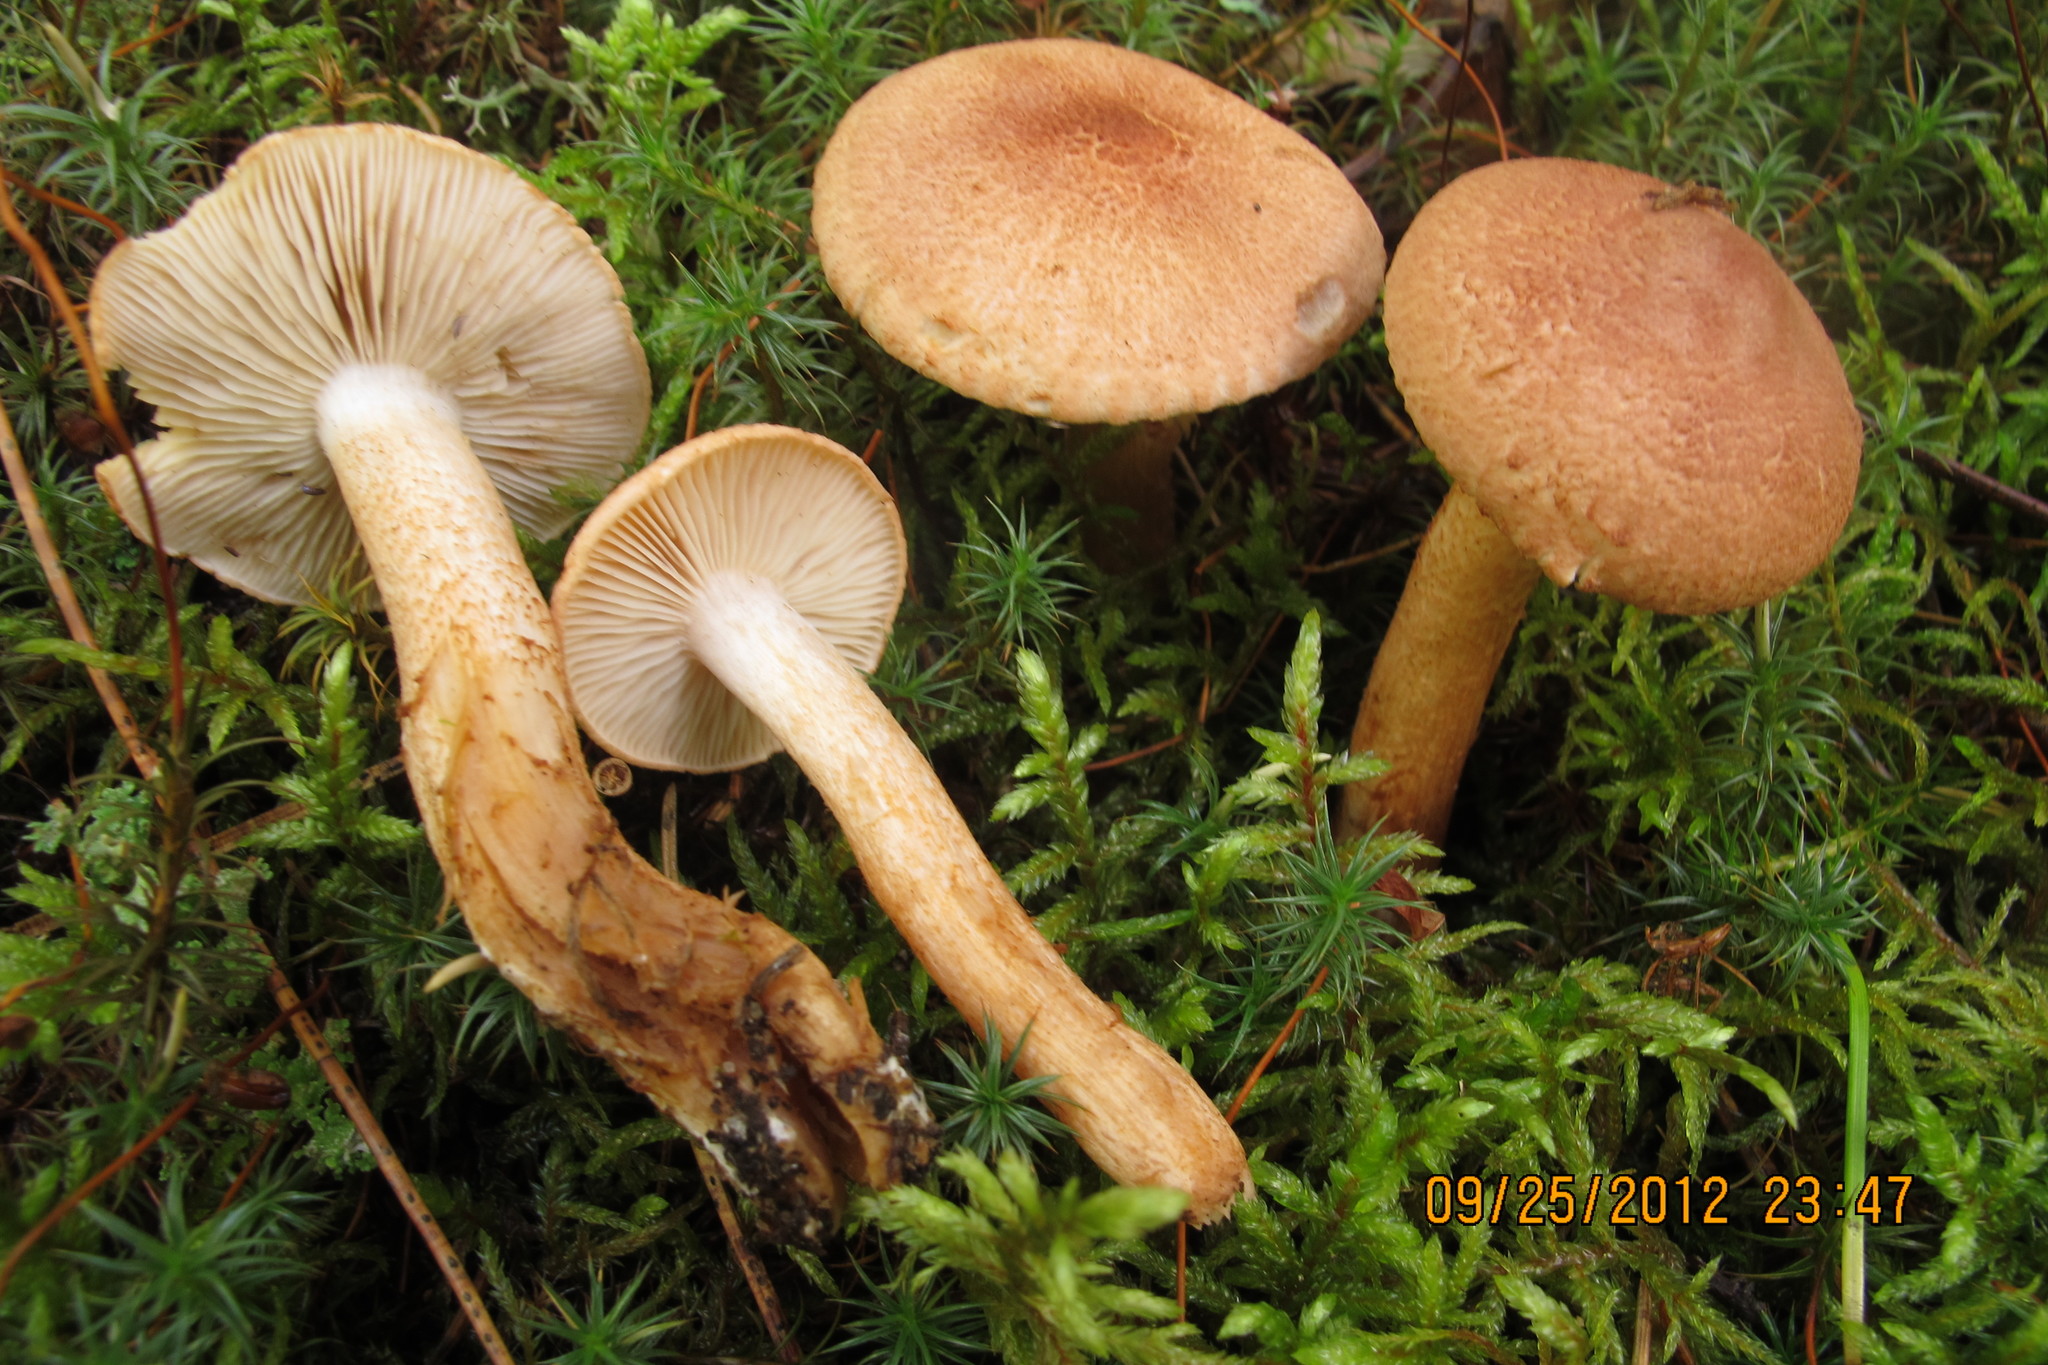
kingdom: Fungi
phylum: Basidiomycota
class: Agaricomycetes
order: Agaricales
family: Tricholomataceae
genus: Tricholoma
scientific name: Tricholoma vaccinum
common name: Scaly knight
